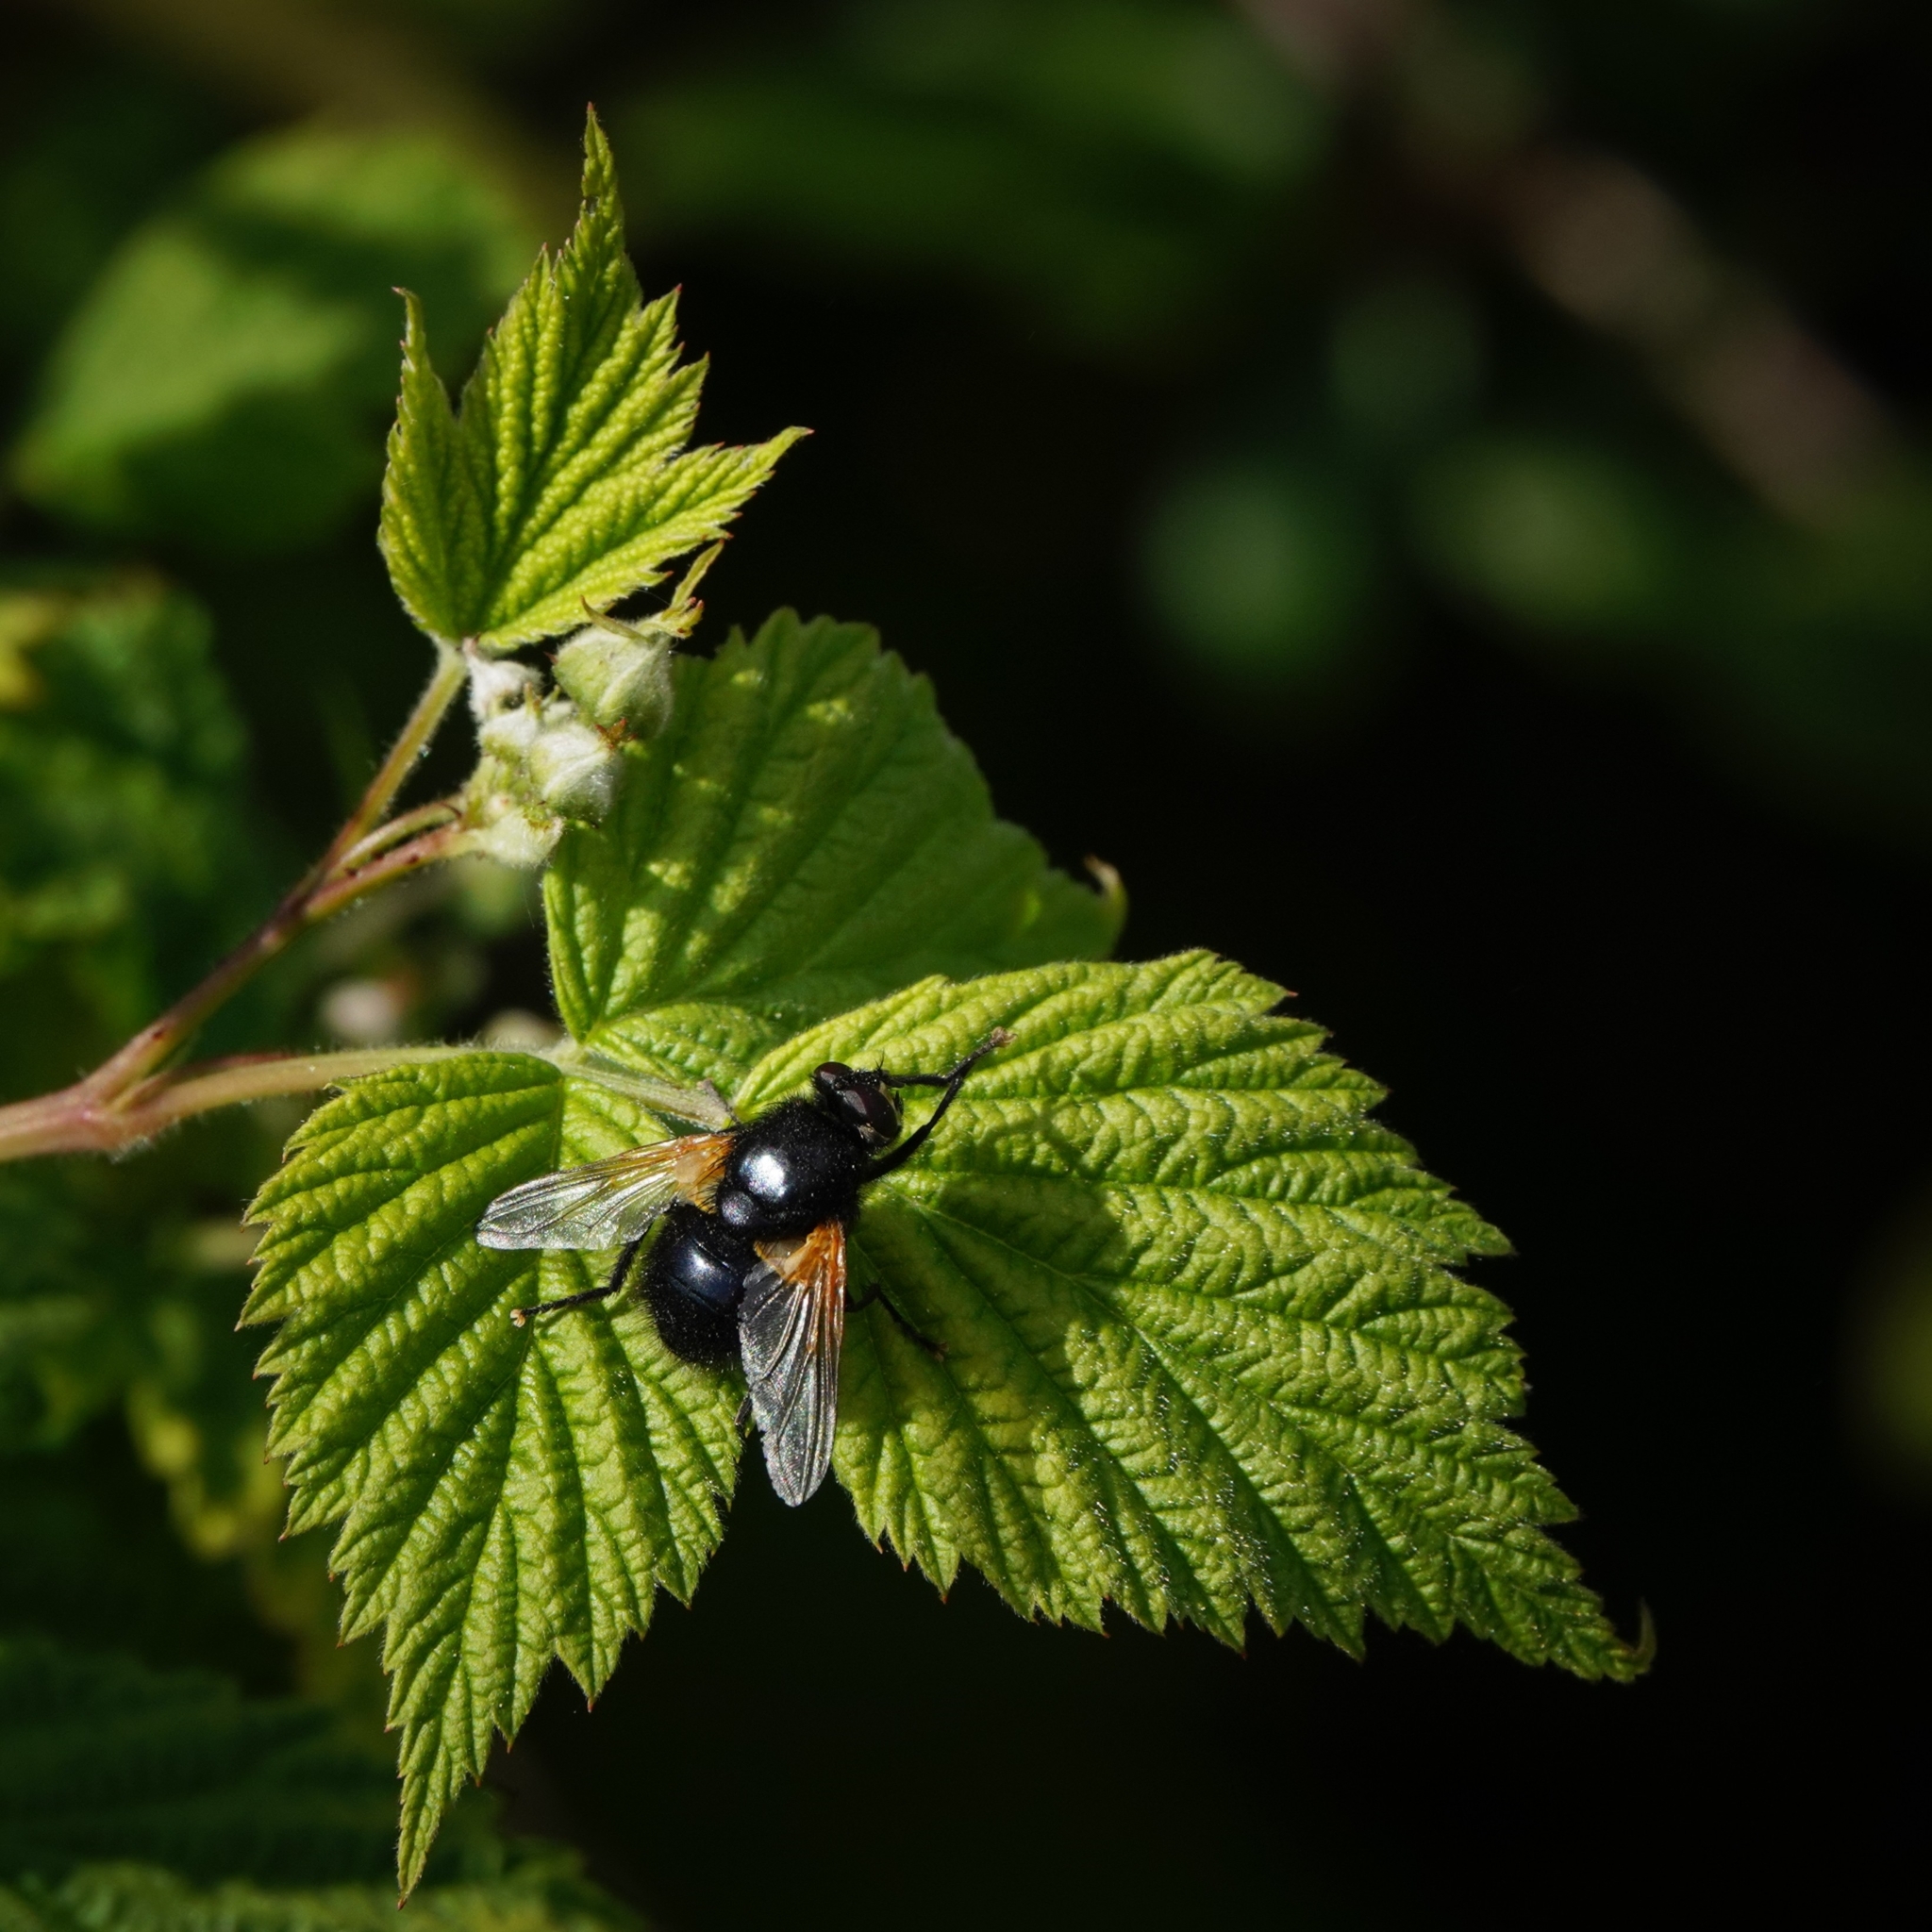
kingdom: Animalia
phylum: Arthropoda
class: Insecta
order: Diptera
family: Muscidae
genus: Mesembrina
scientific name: Mesembrina meridiana
